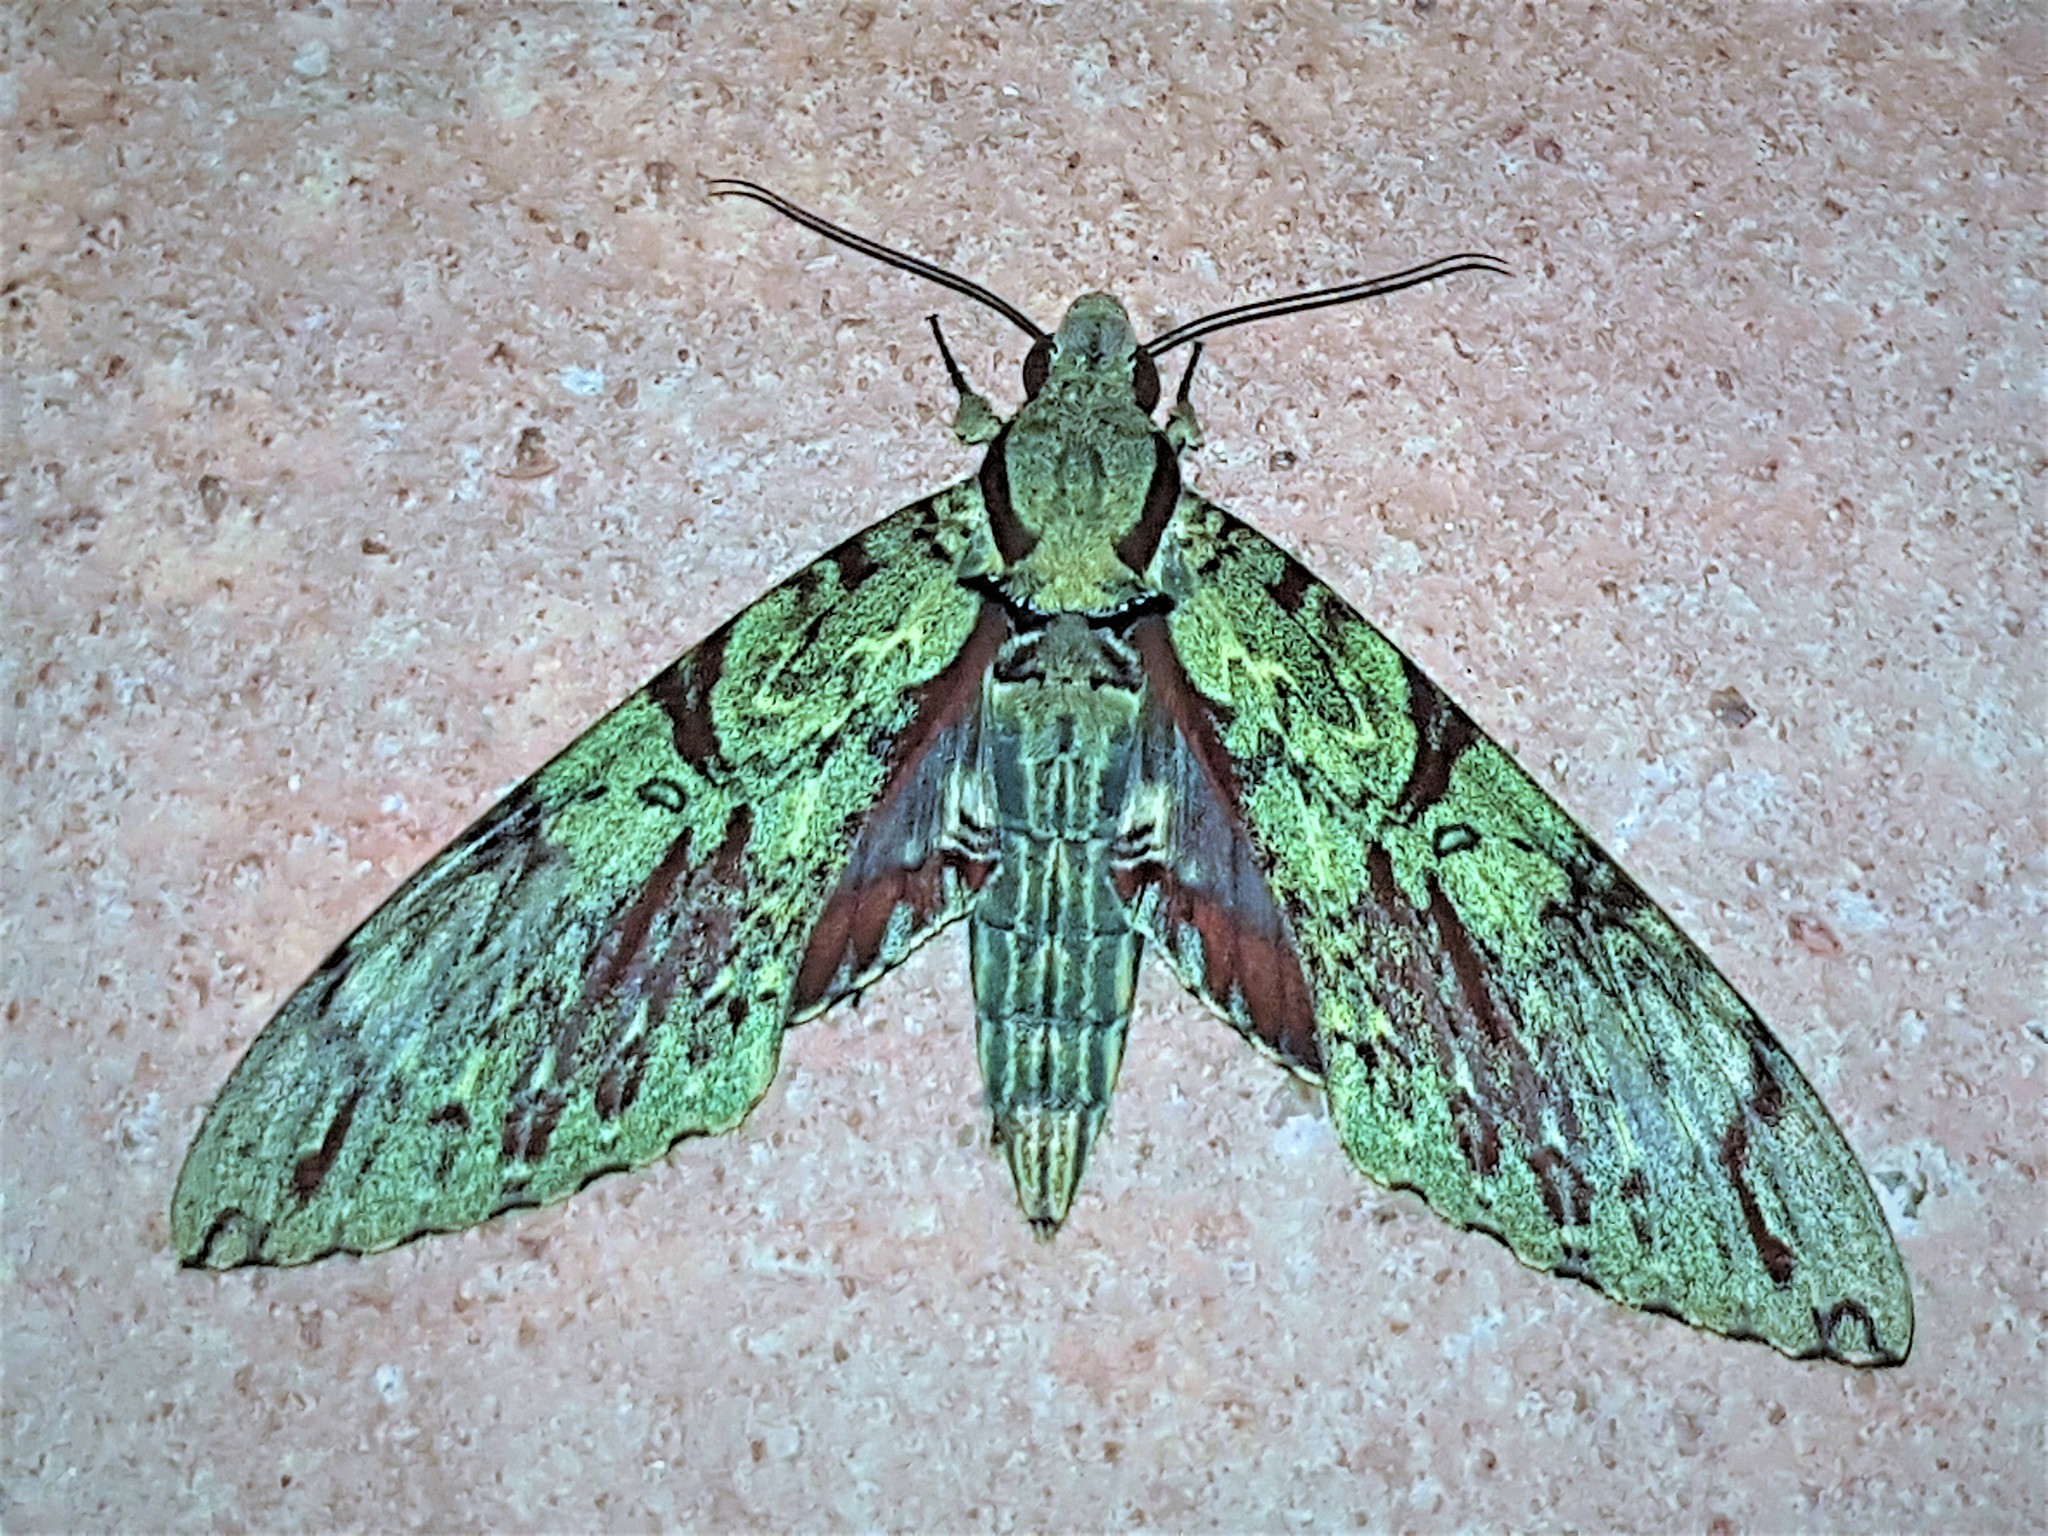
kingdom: Animalia
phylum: Arthropoda
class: Insecta
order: Lepidoptera
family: Sphingidae
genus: Amphimoea
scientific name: Amphimoea walkeri
